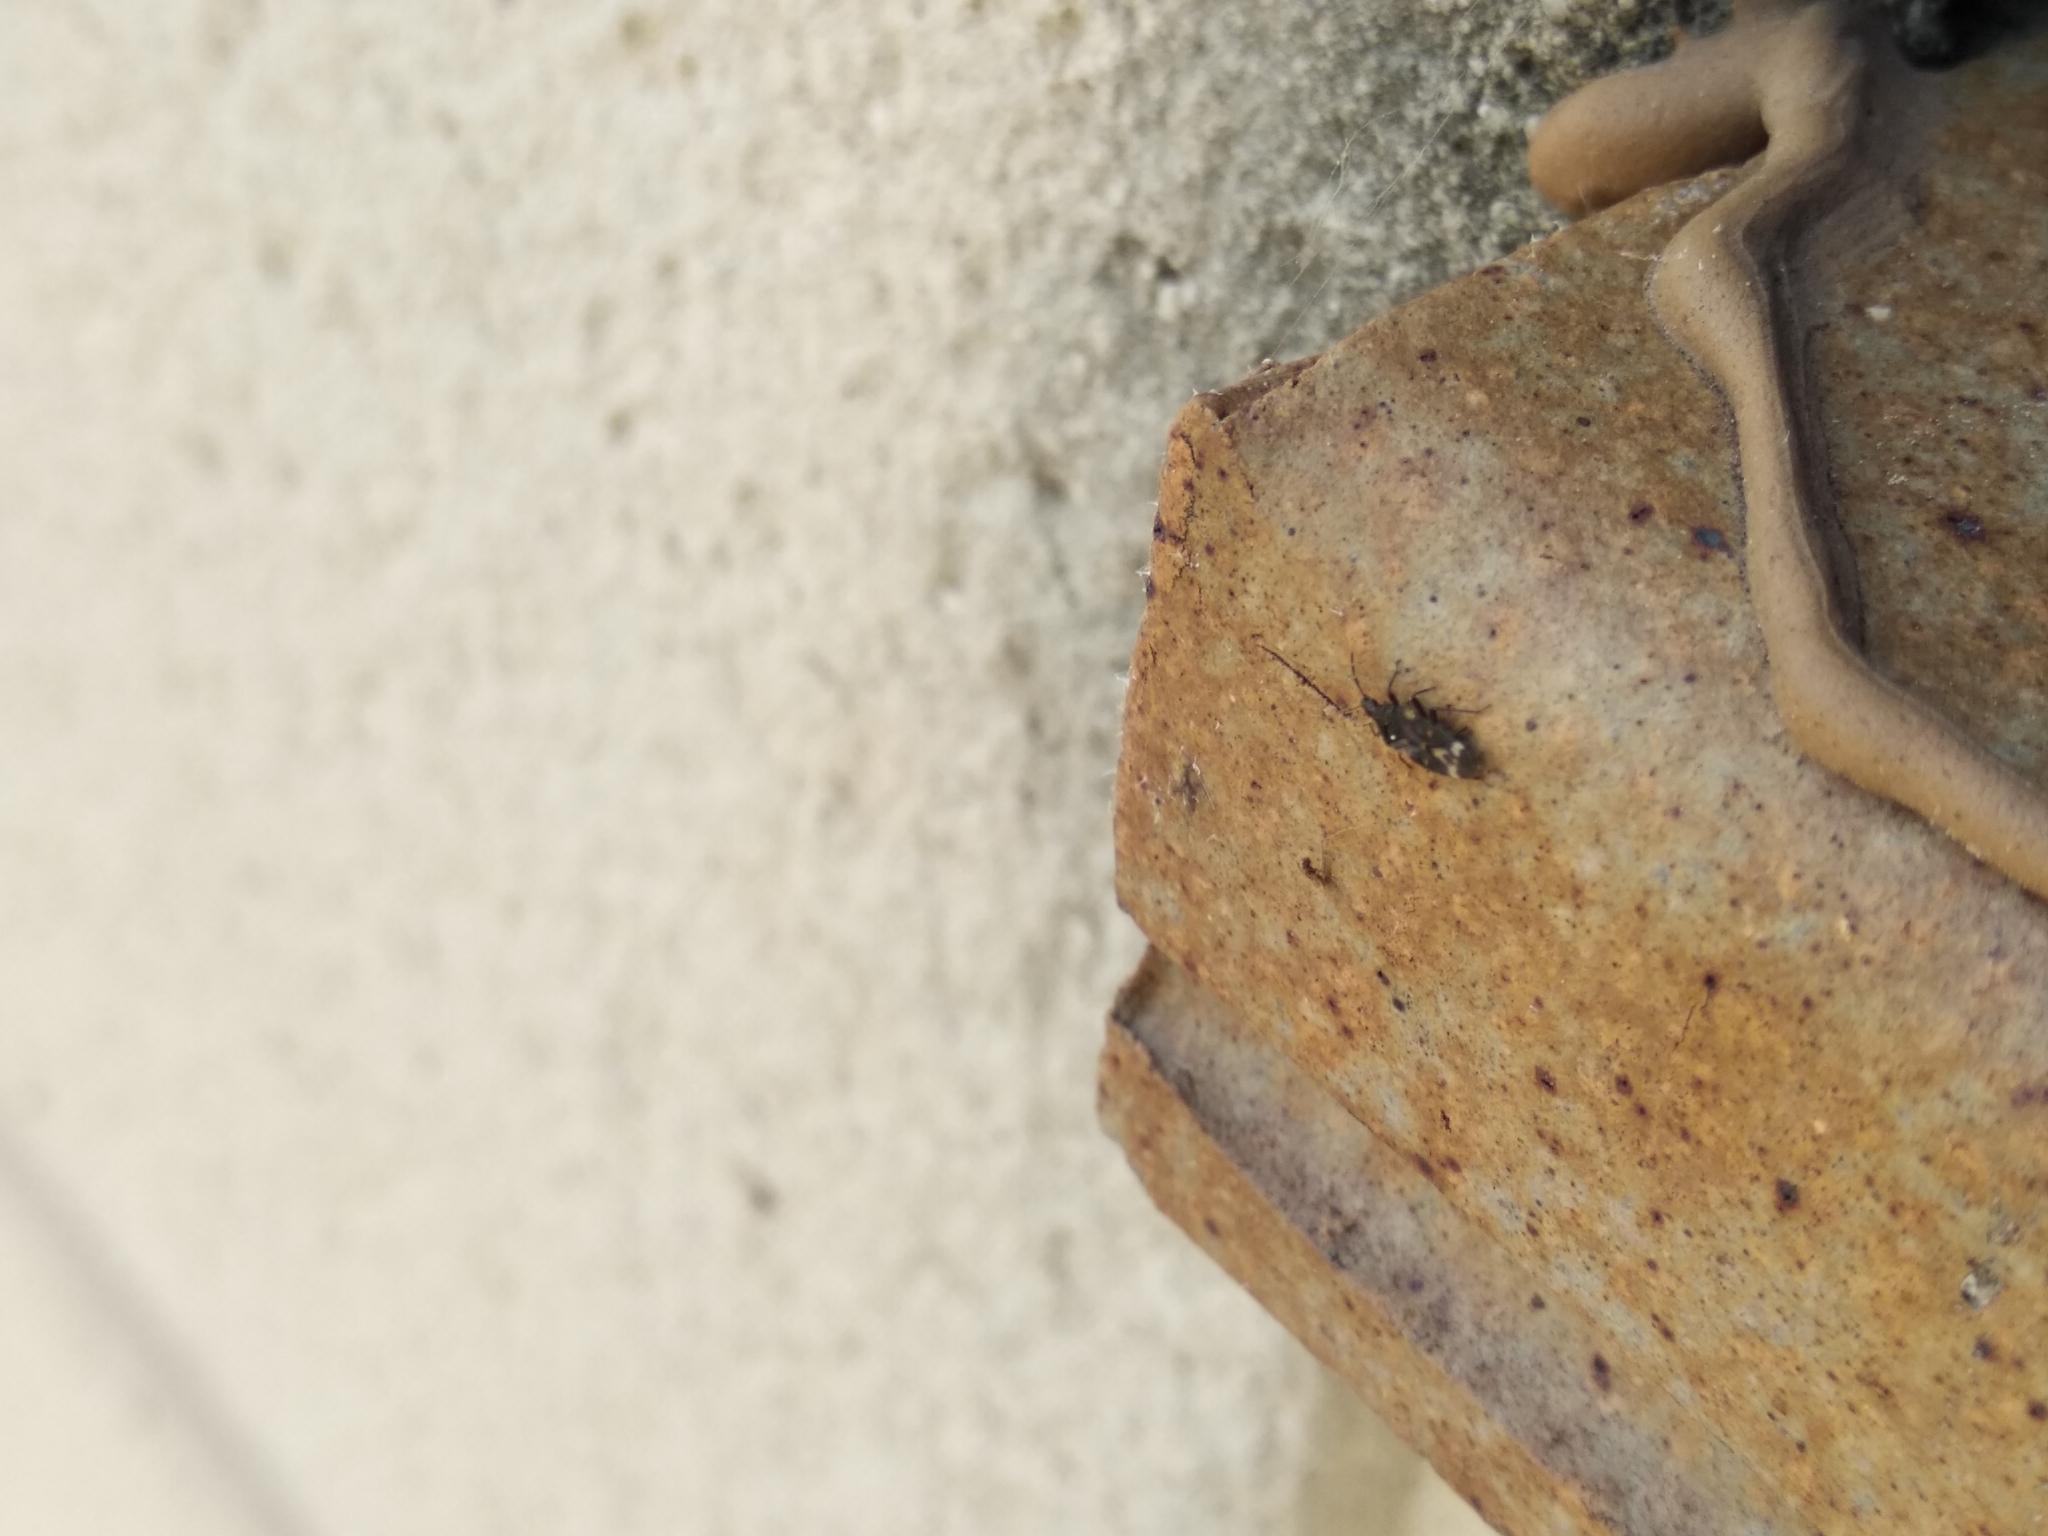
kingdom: Animalia
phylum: Arthropoda
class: Insecta
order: Hemiptera
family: Anthocoridae
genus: Temnostethus
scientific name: Temnostethus pusillus
